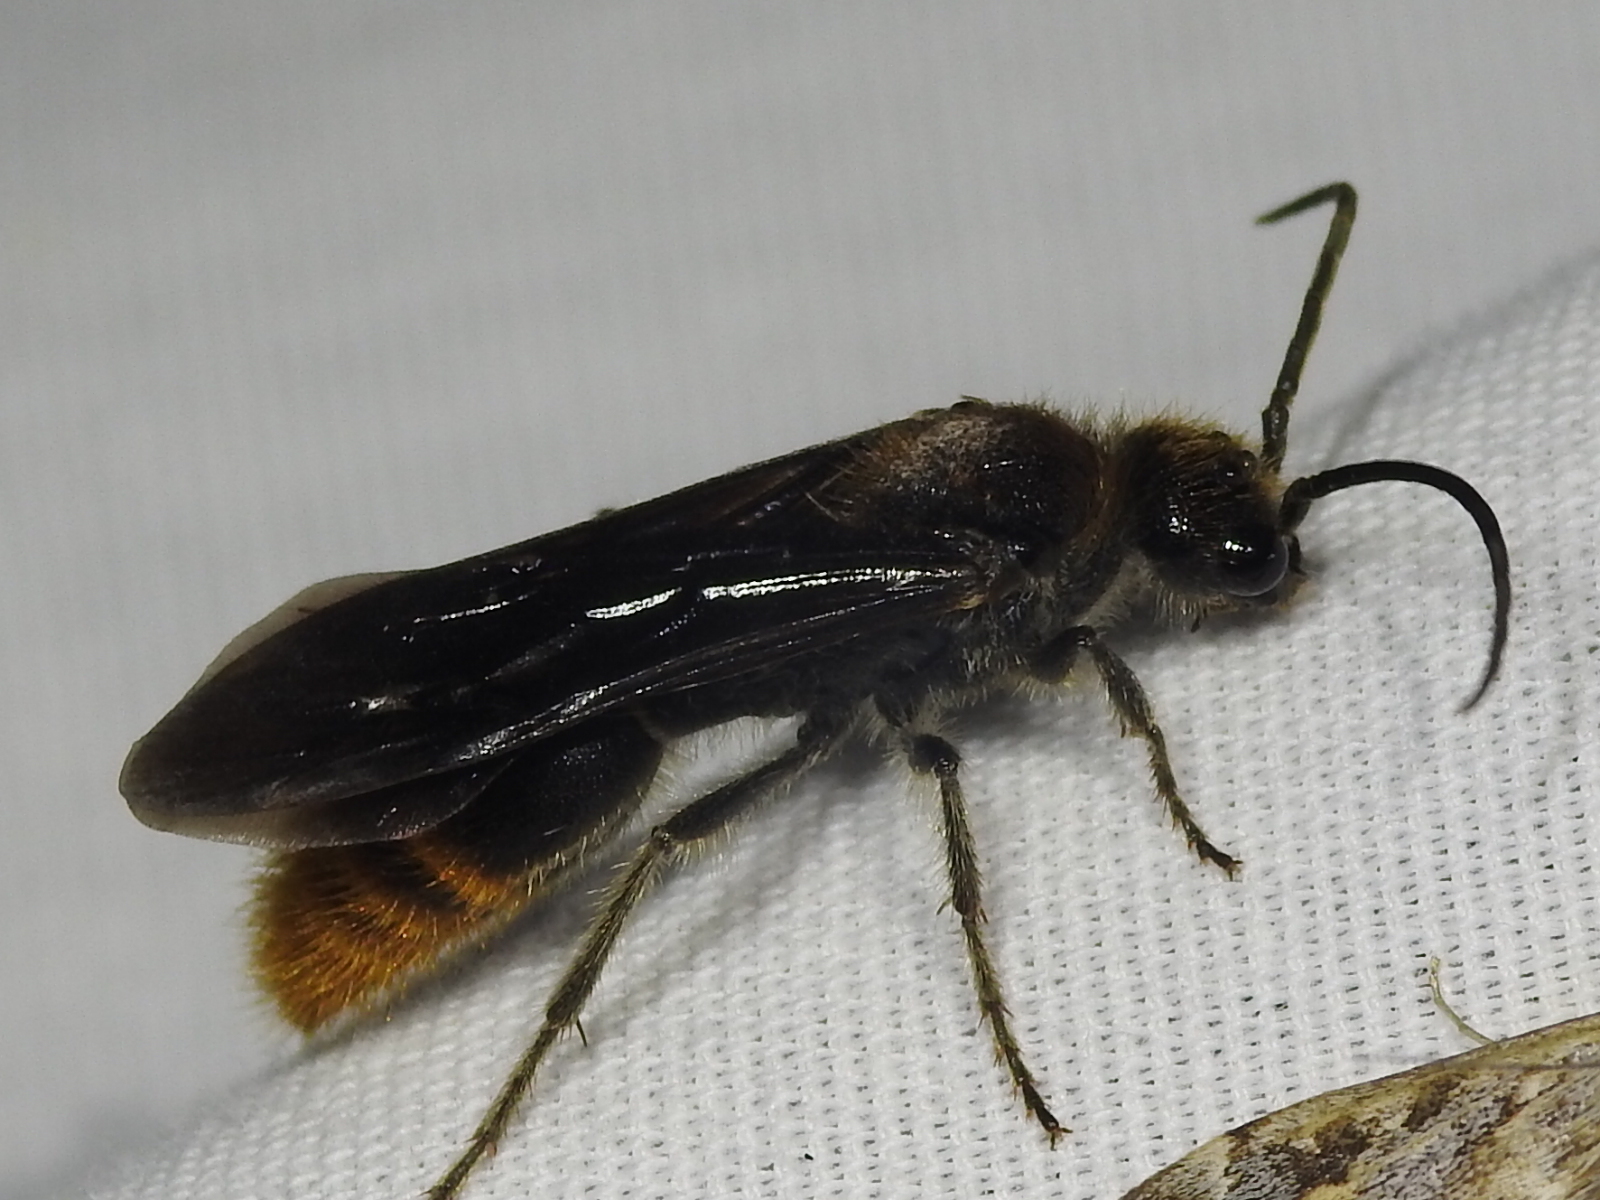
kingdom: Animalia
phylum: Arthropoda
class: Insecta
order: Hymenoptera
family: Mutillidae
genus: Sphaeropthalma
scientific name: Sphaeropthalma marpesia
